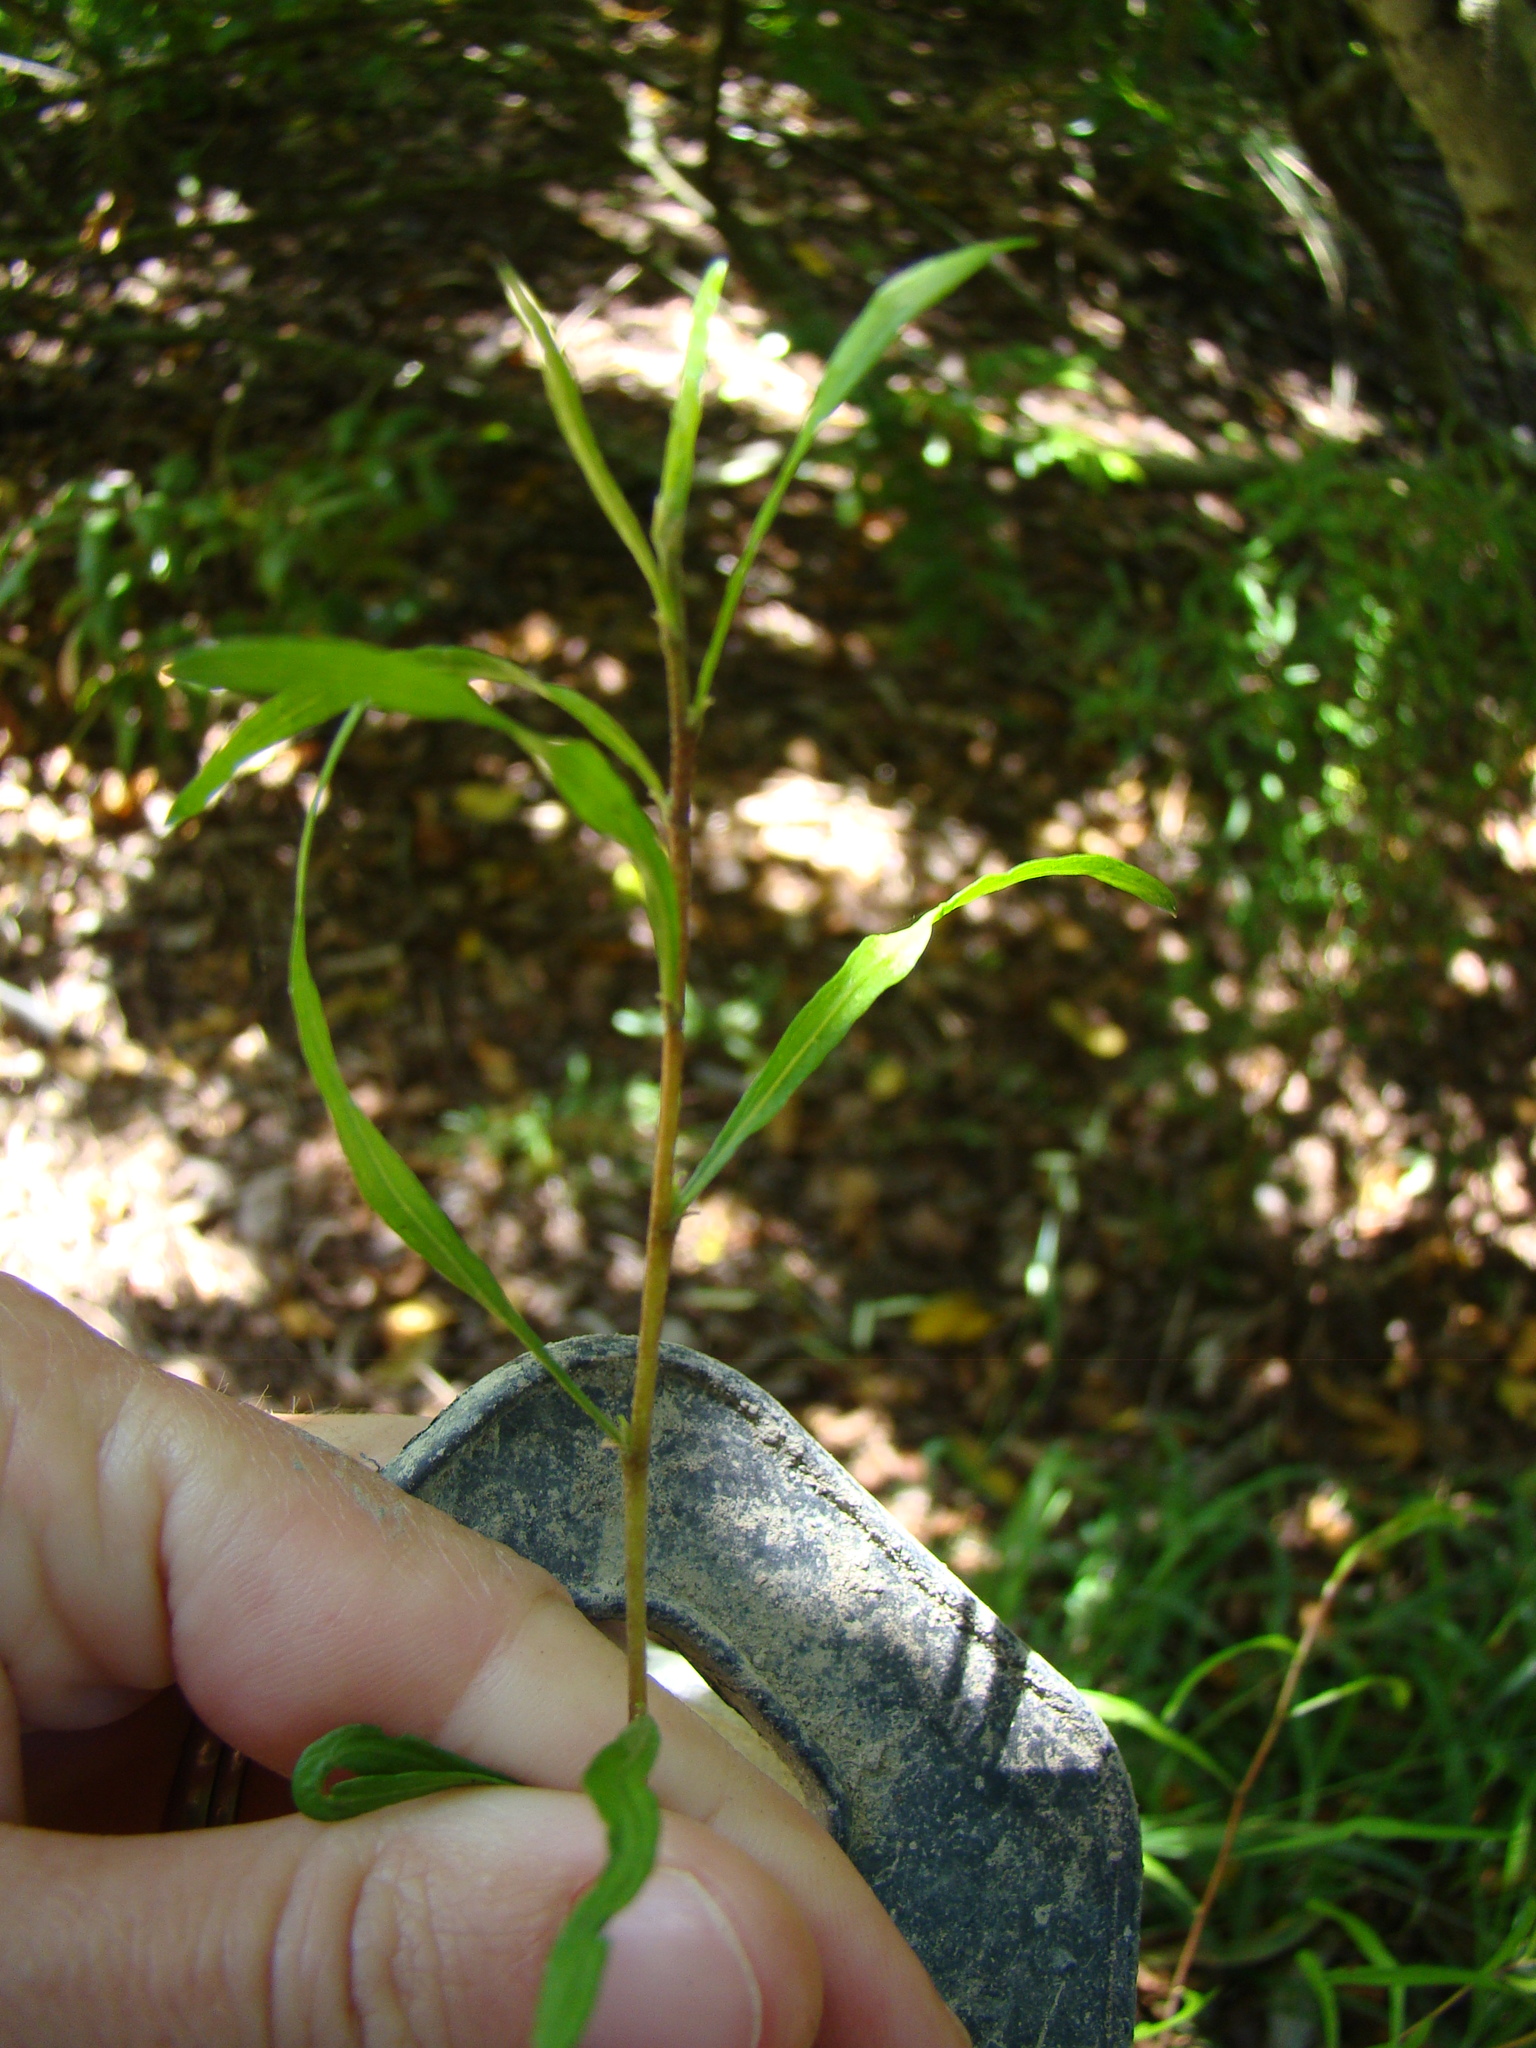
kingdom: Plantae
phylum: Tracheophyta
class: Magnoliopsida
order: Ericales
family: Ericaceae
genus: Leucopogon
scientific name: Leucopogon fasciculatus
